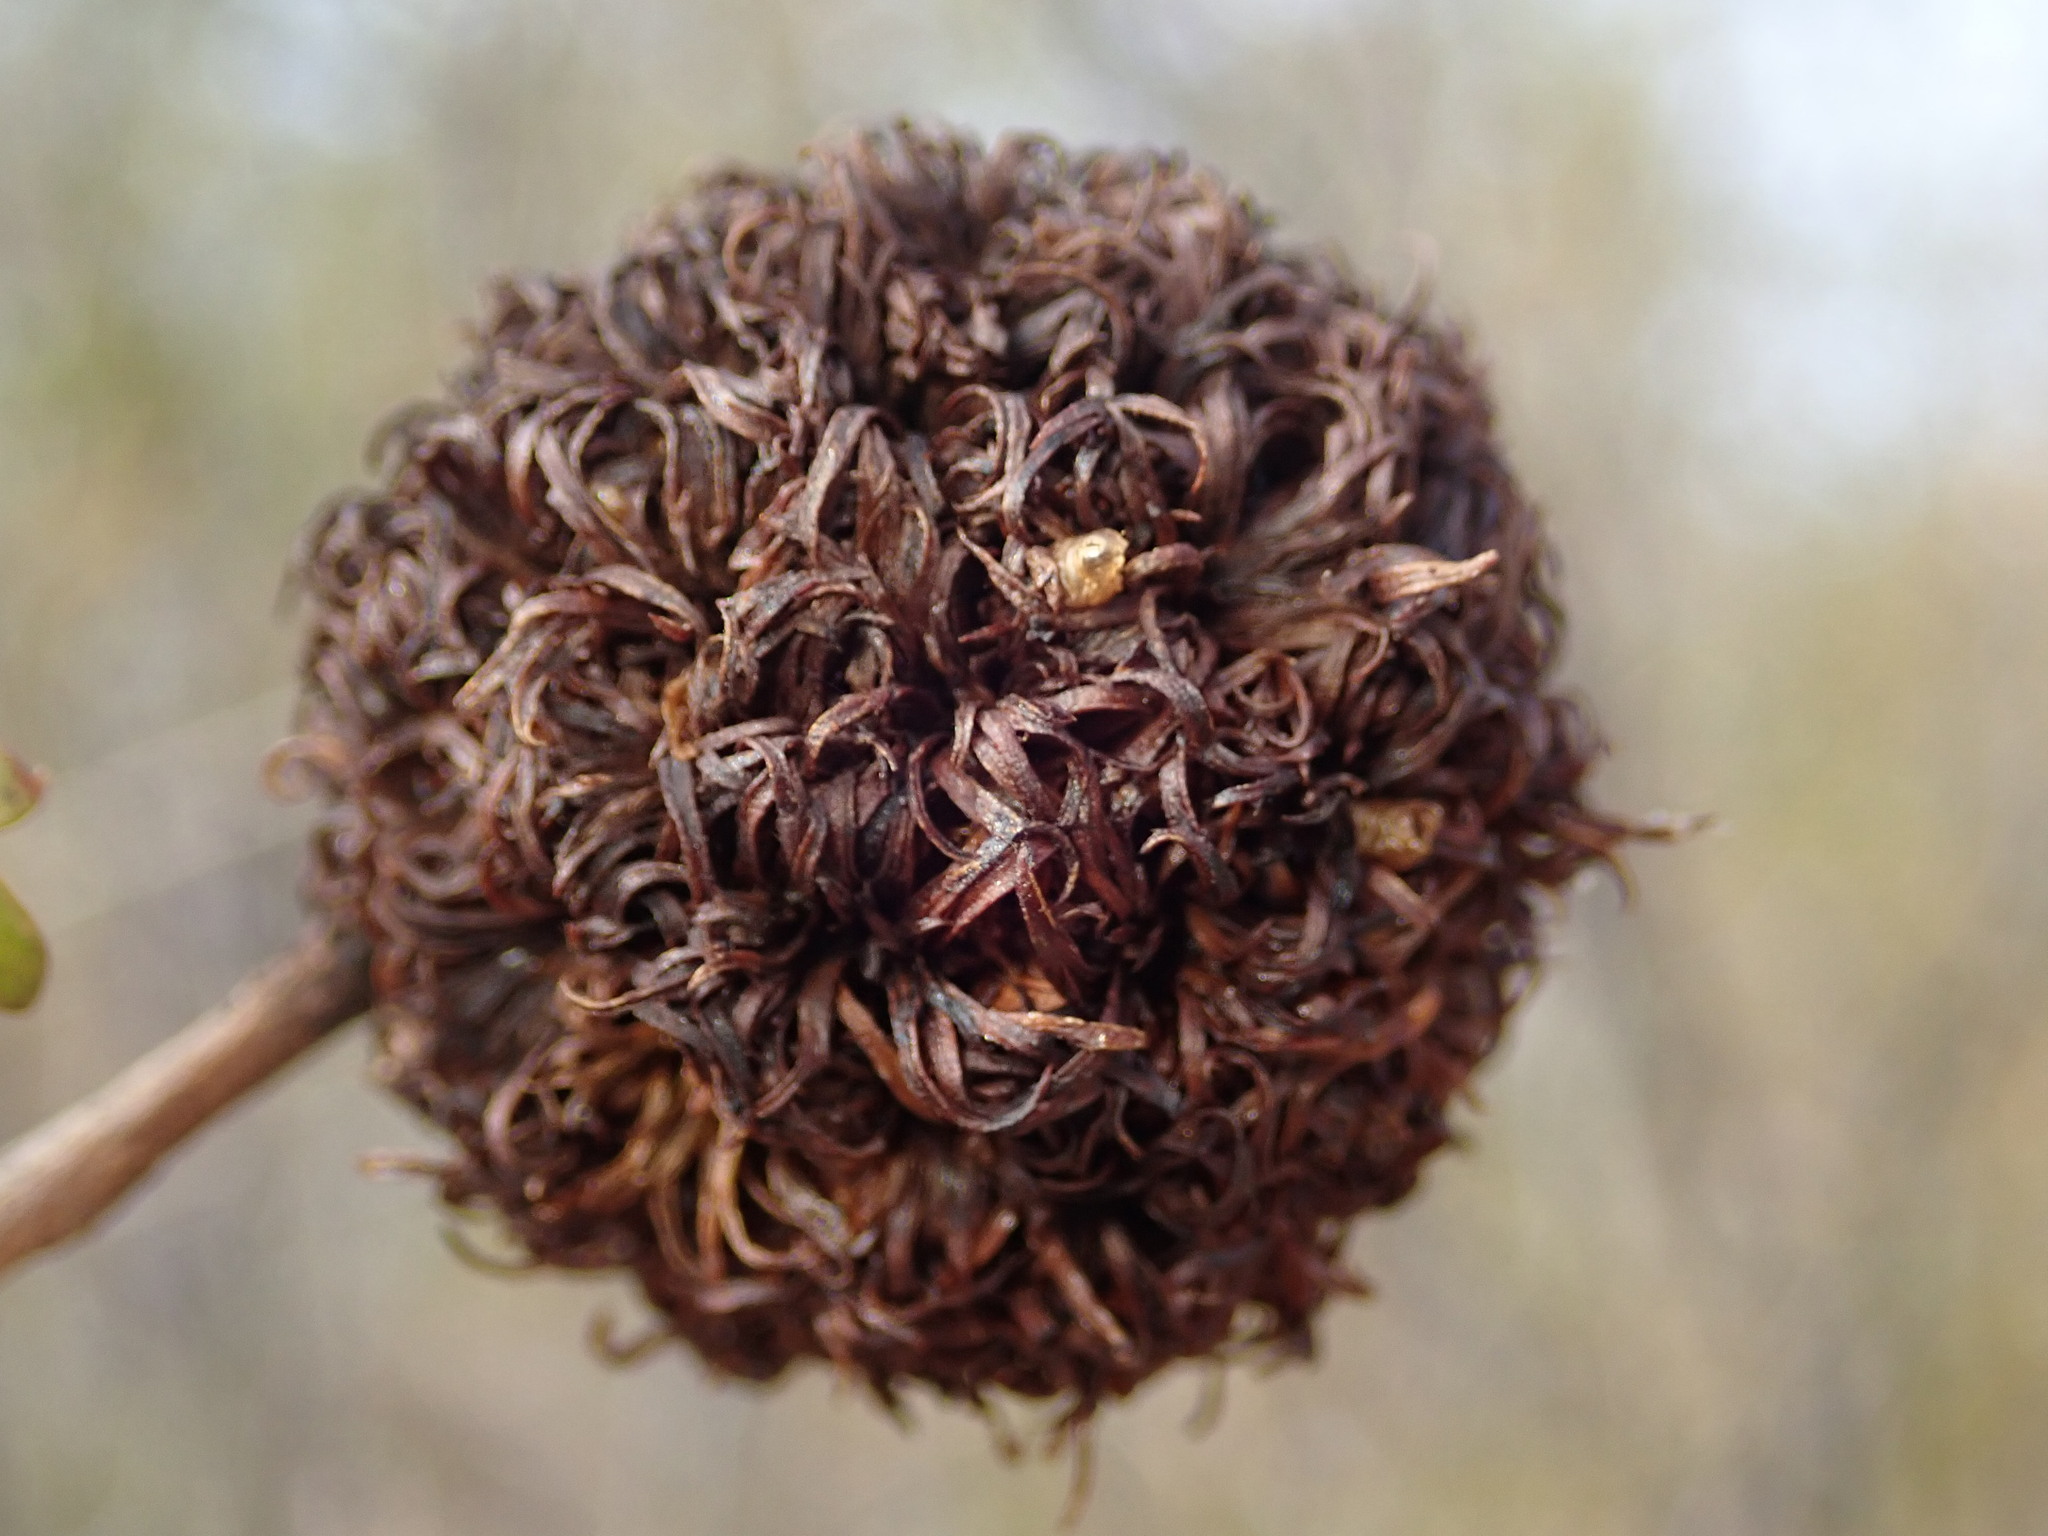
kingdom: Animalia
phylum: Arthropoda
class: Insecta
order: Diptera
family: Cecidomyiidae
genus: Asphondylia
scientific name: Asphondylia auripila
